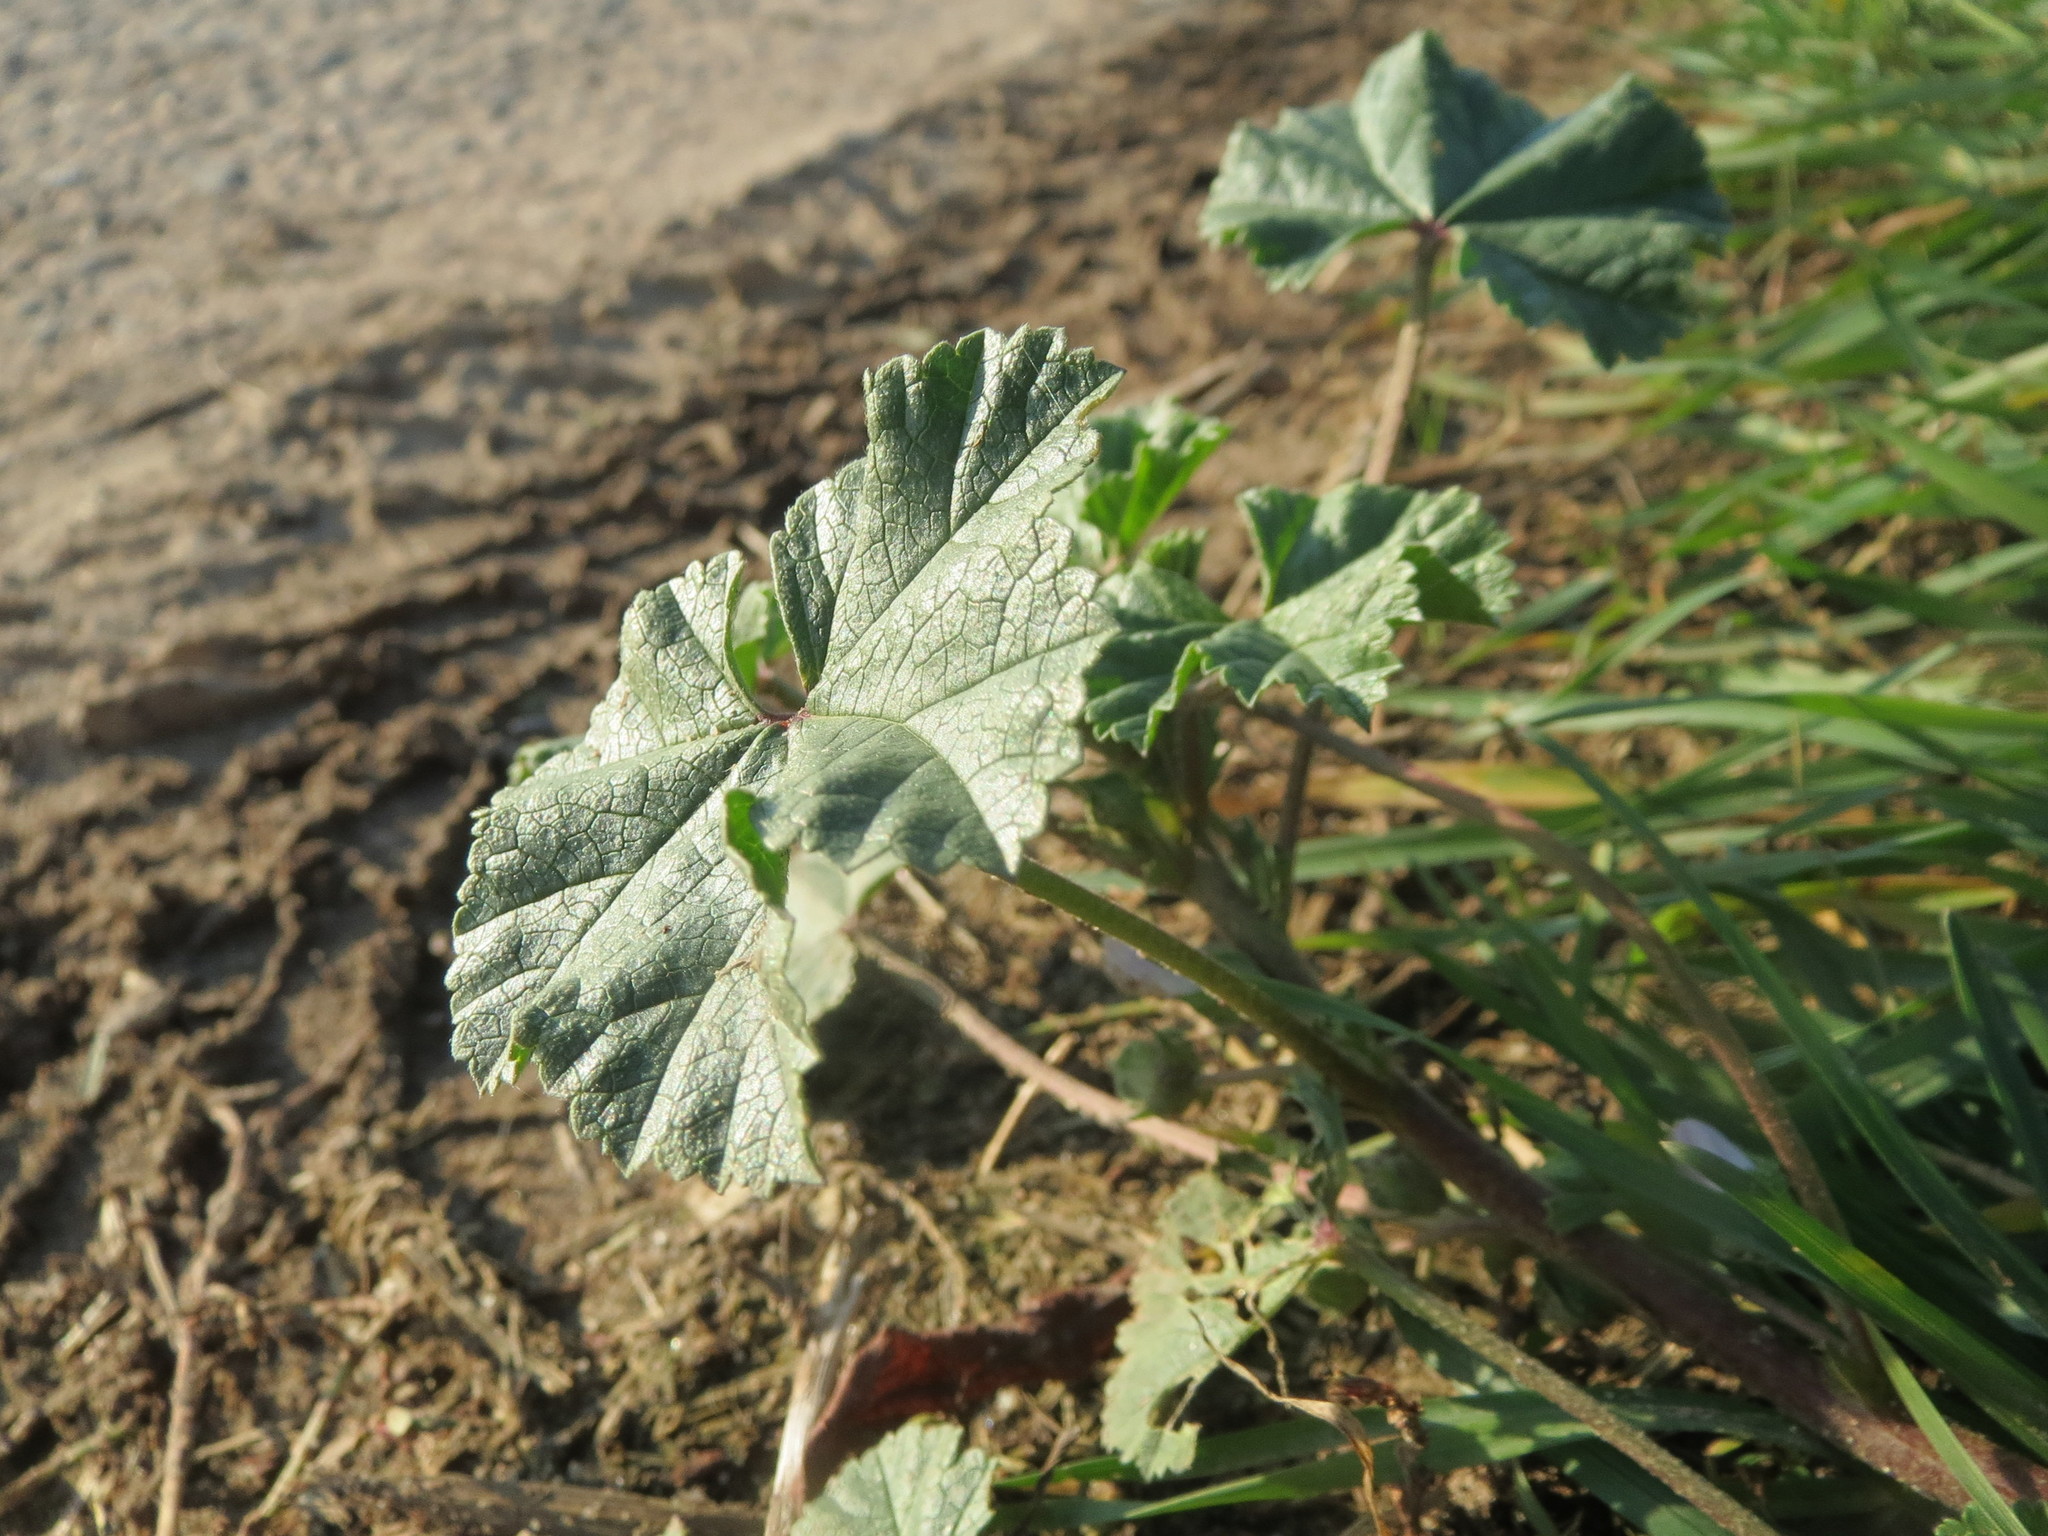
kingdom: Plantae
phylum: Tracheophyta
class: Magnoliopsida
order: Malvales
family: Malvaceae
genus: Malva
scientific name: Malva neglecta
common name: Common mallow
